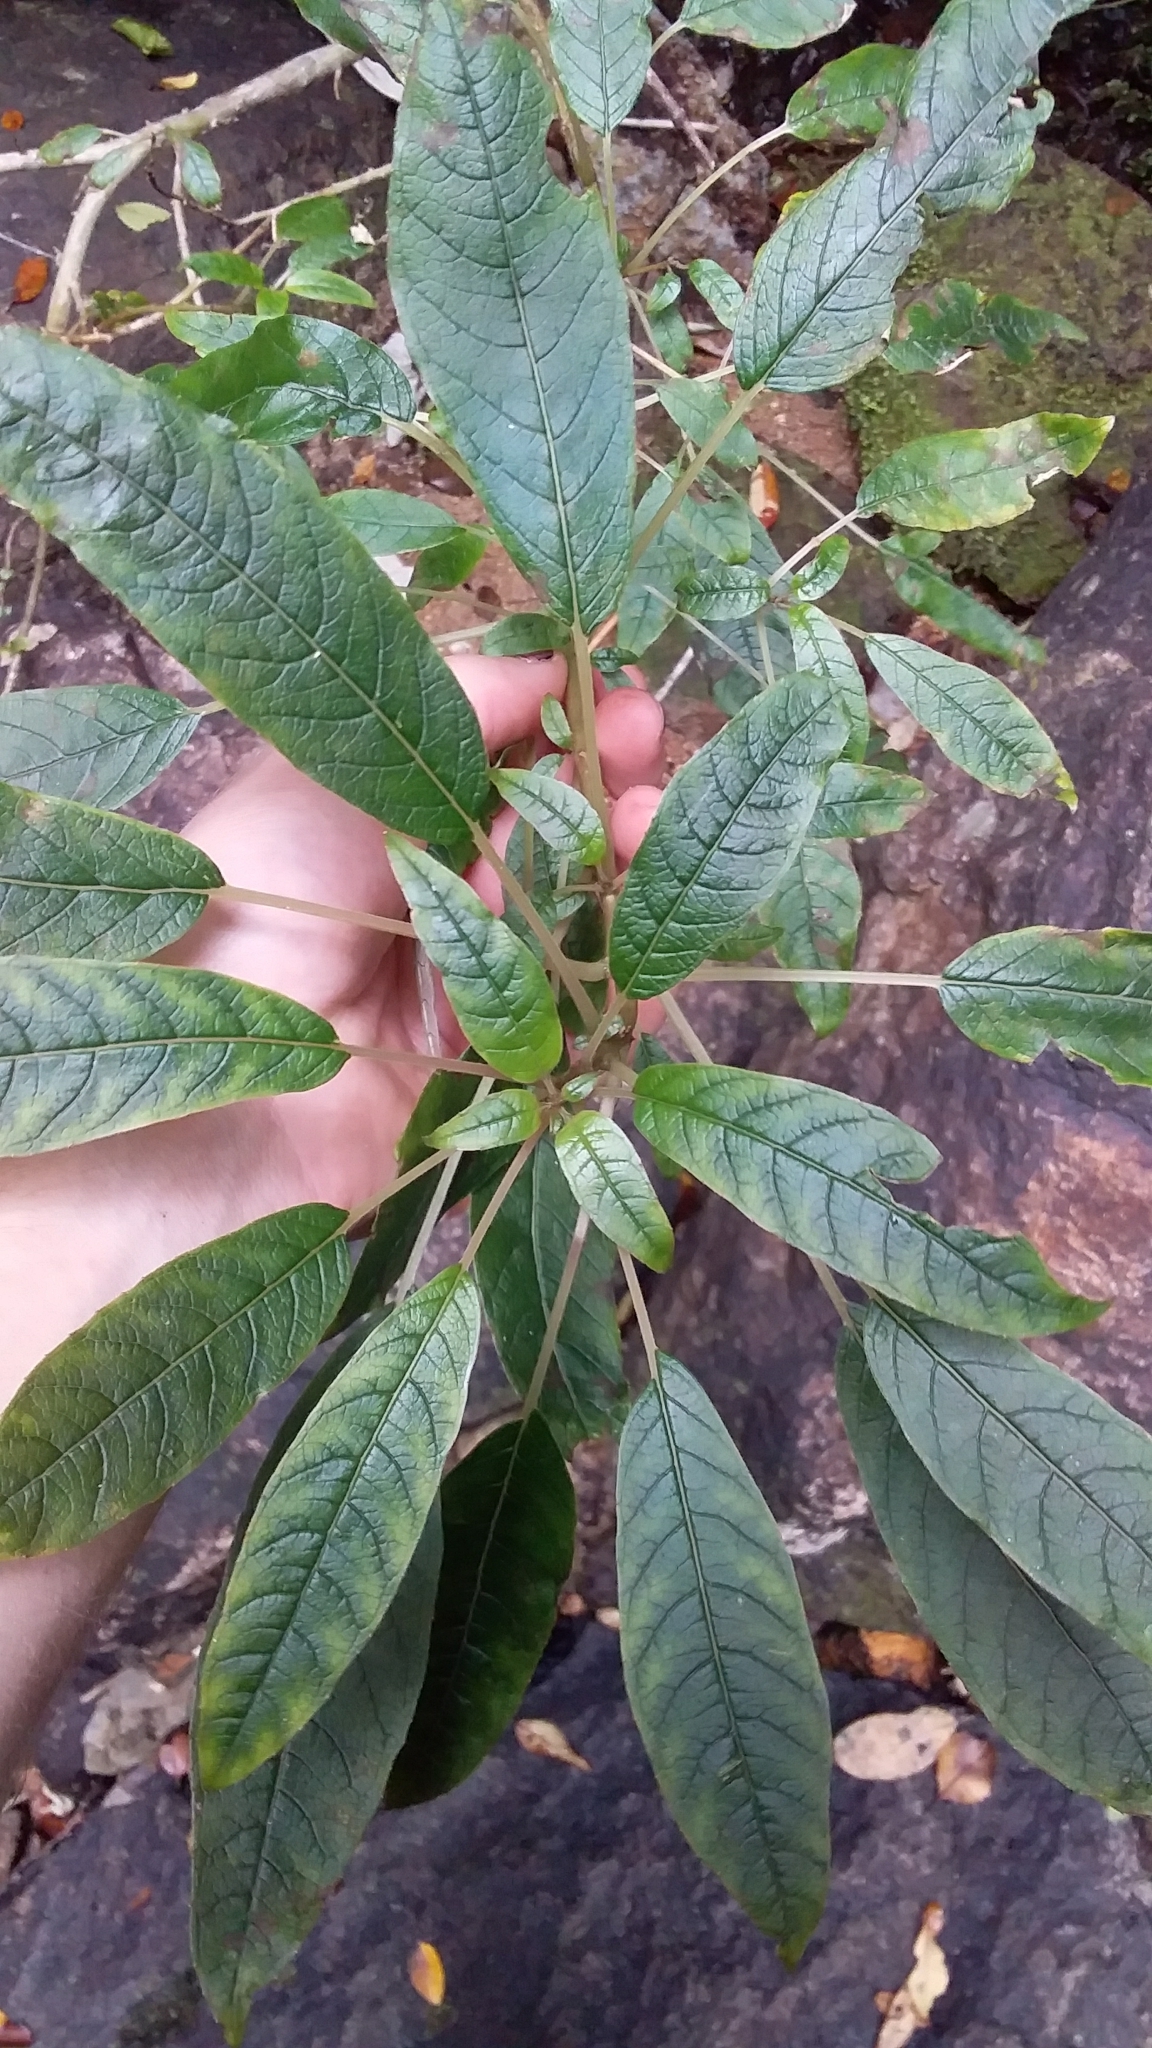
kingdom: Plantae
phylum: Tracheophyta
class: Magnoliopsida
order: Myrtales
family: Onagraceae
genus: Fuchsia
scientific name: Fuchsia excorticata
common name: Tree fuchsia
